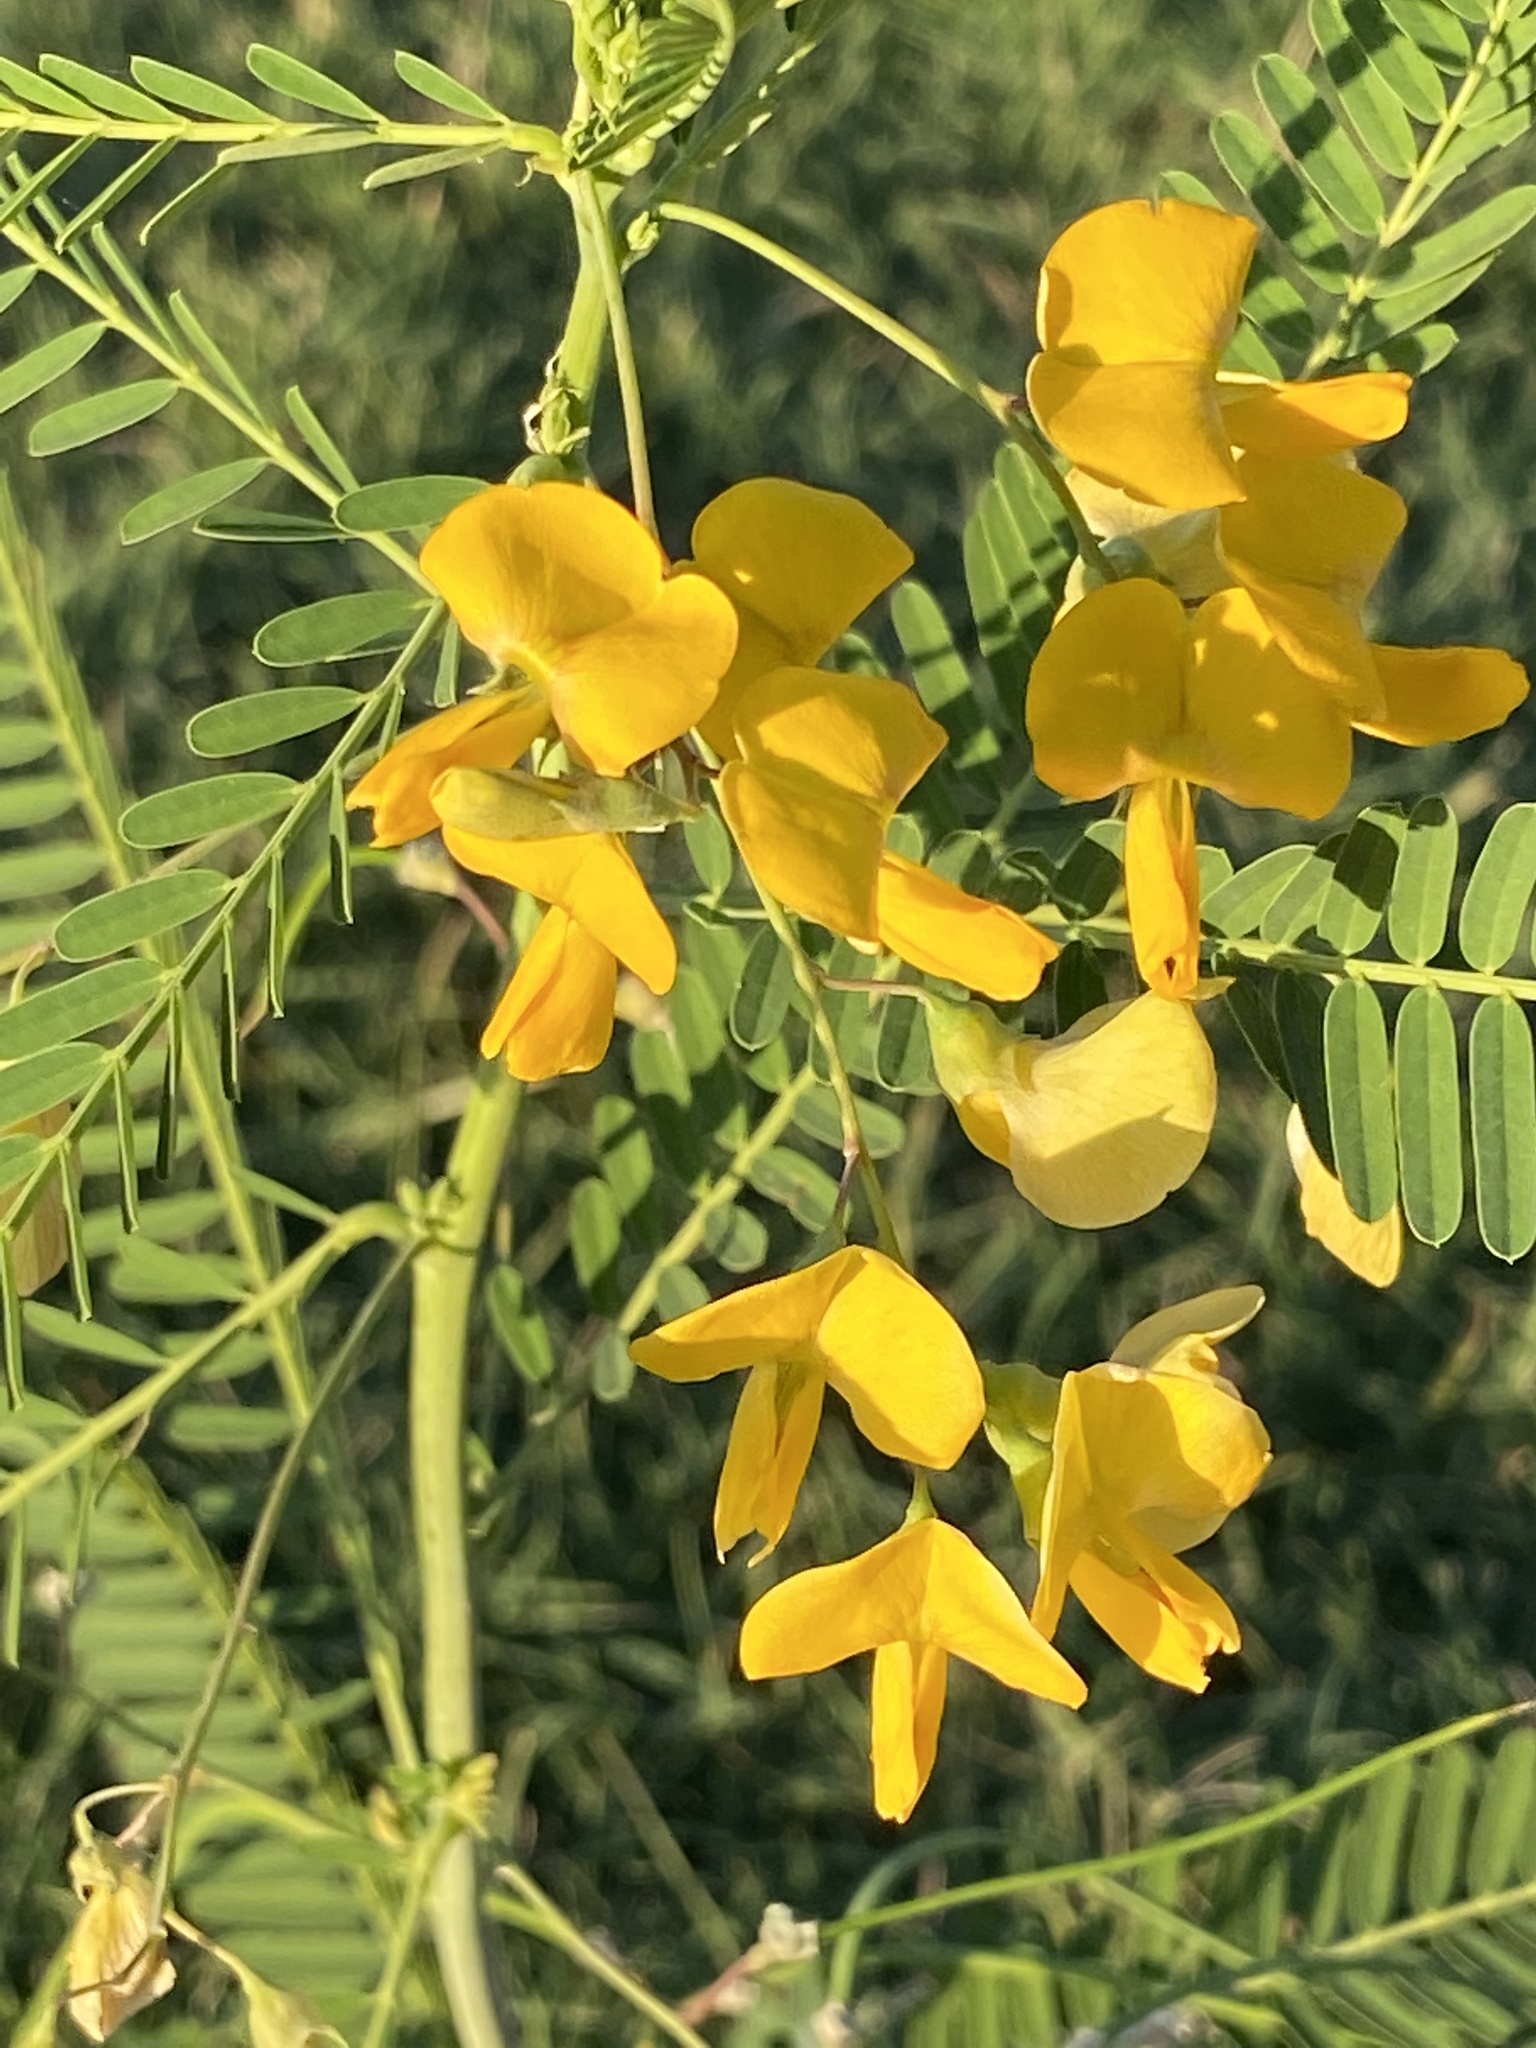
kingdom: Plantae
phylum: Tracheophyta
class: Magnoliopsida
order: Fabales
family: Fabaceae
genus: Sesbania
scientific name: Sesbania herbacea
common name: Bigpod sesbania
